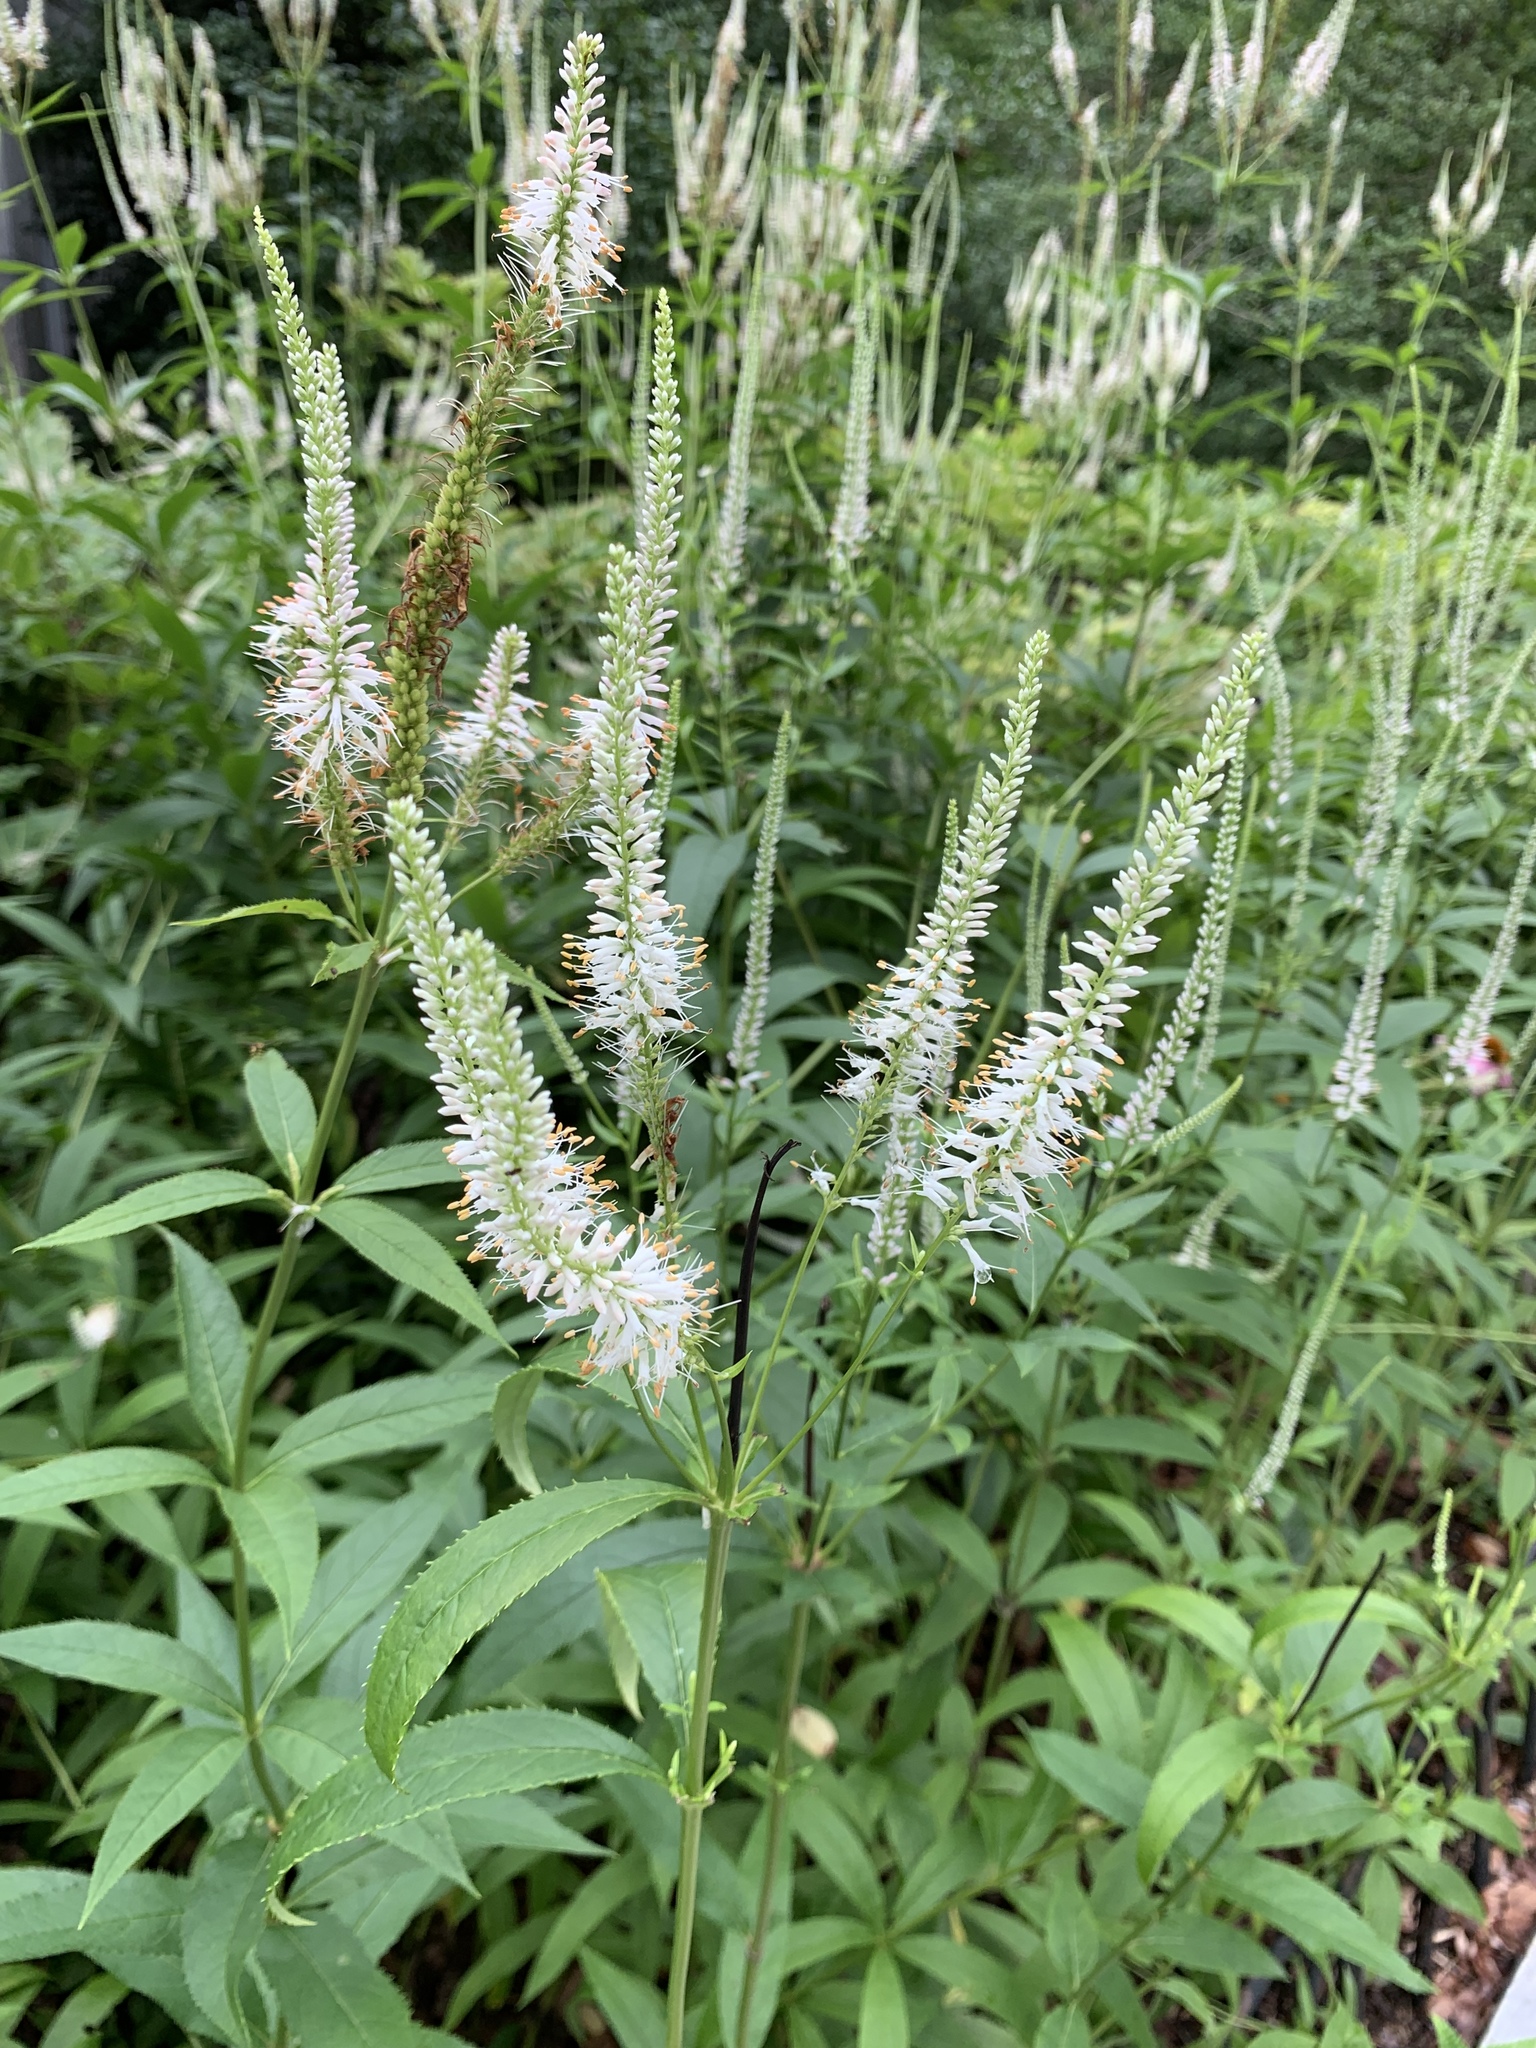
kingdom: Plantae
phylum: Tracheophyta
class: Magnoliopsida
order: Lamiales
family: Plantaginaceae
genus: Veronicastrum
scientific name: Veronicastrum virginicum
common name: Blackroot
